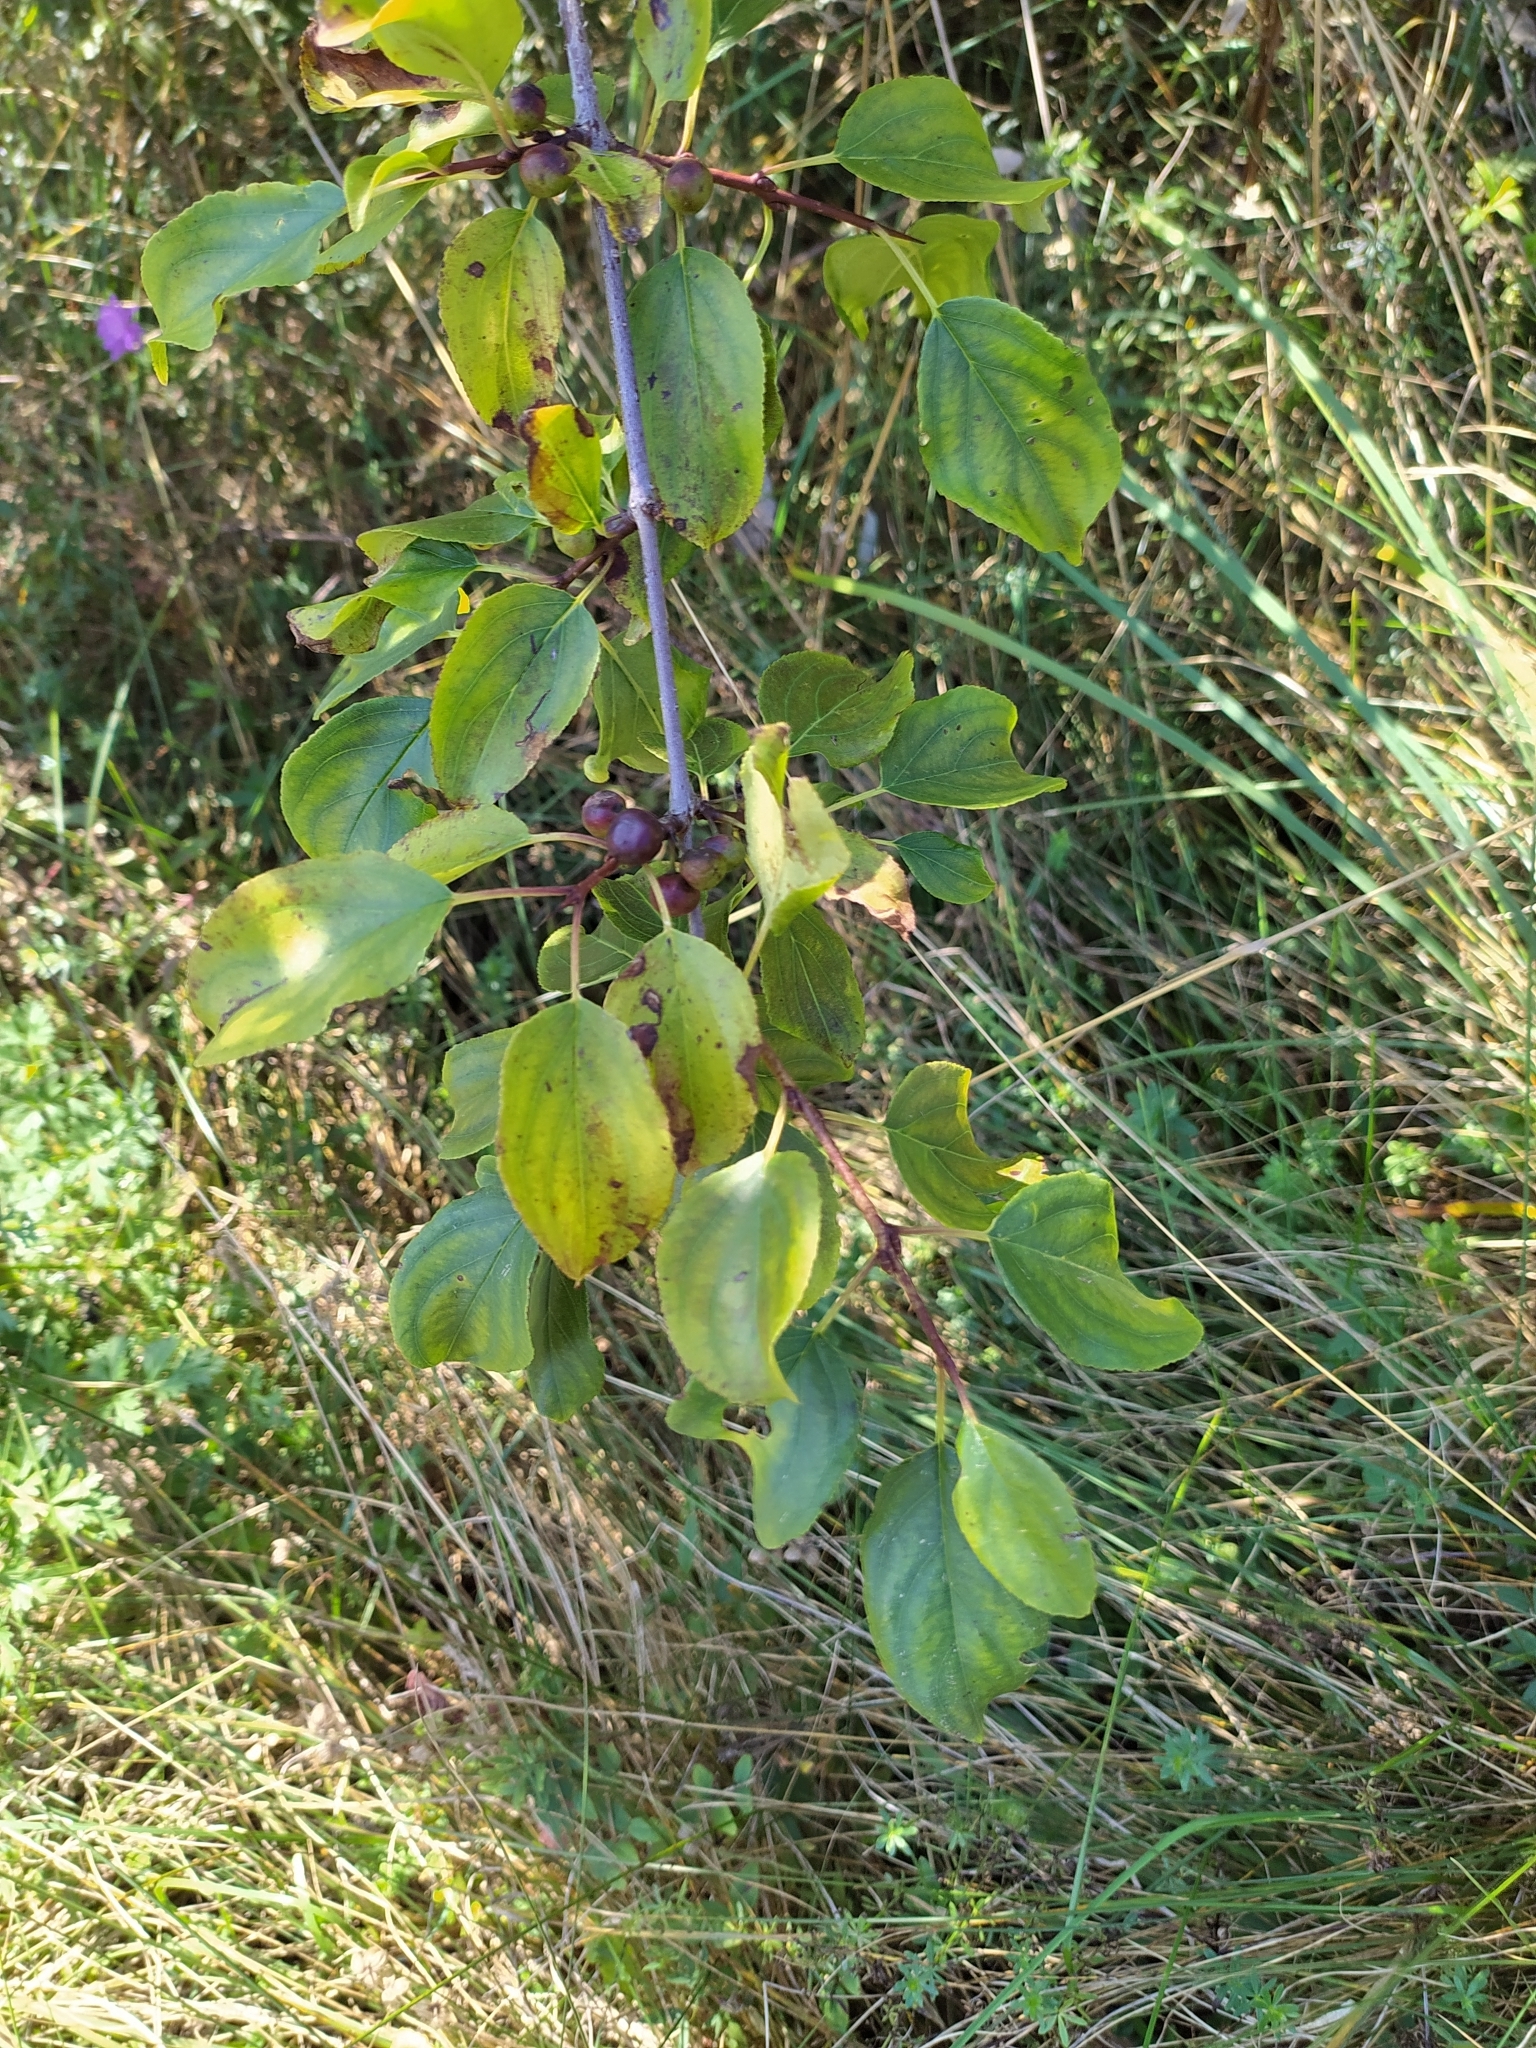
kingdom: Plantae
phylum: Tracheophyta
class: Magnoliopsida
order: Rosales
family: Rhamnaceae
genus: Rhamnus
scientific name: Rhamnus cathartica
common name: Common buckthorn
